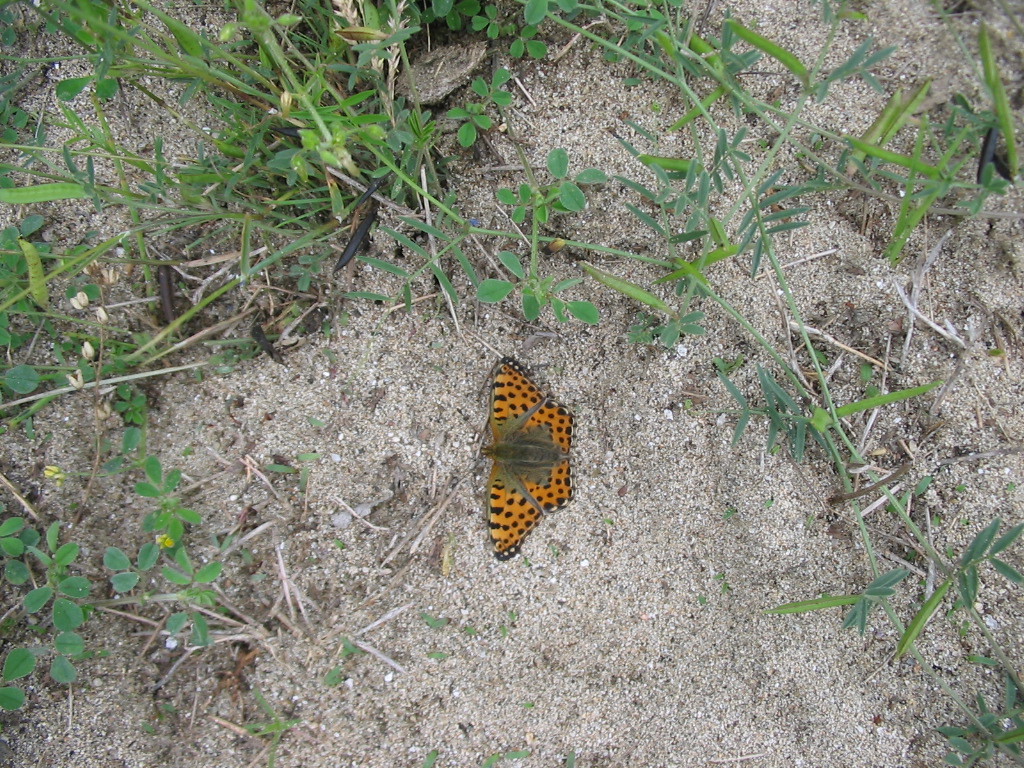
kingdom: Animalia
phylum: Arthropoda
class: Insecta
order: Lepidoptera
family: Nymphalidae
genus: Issoria
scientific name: Issoria lathonia
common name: Queen of spain fritillary
